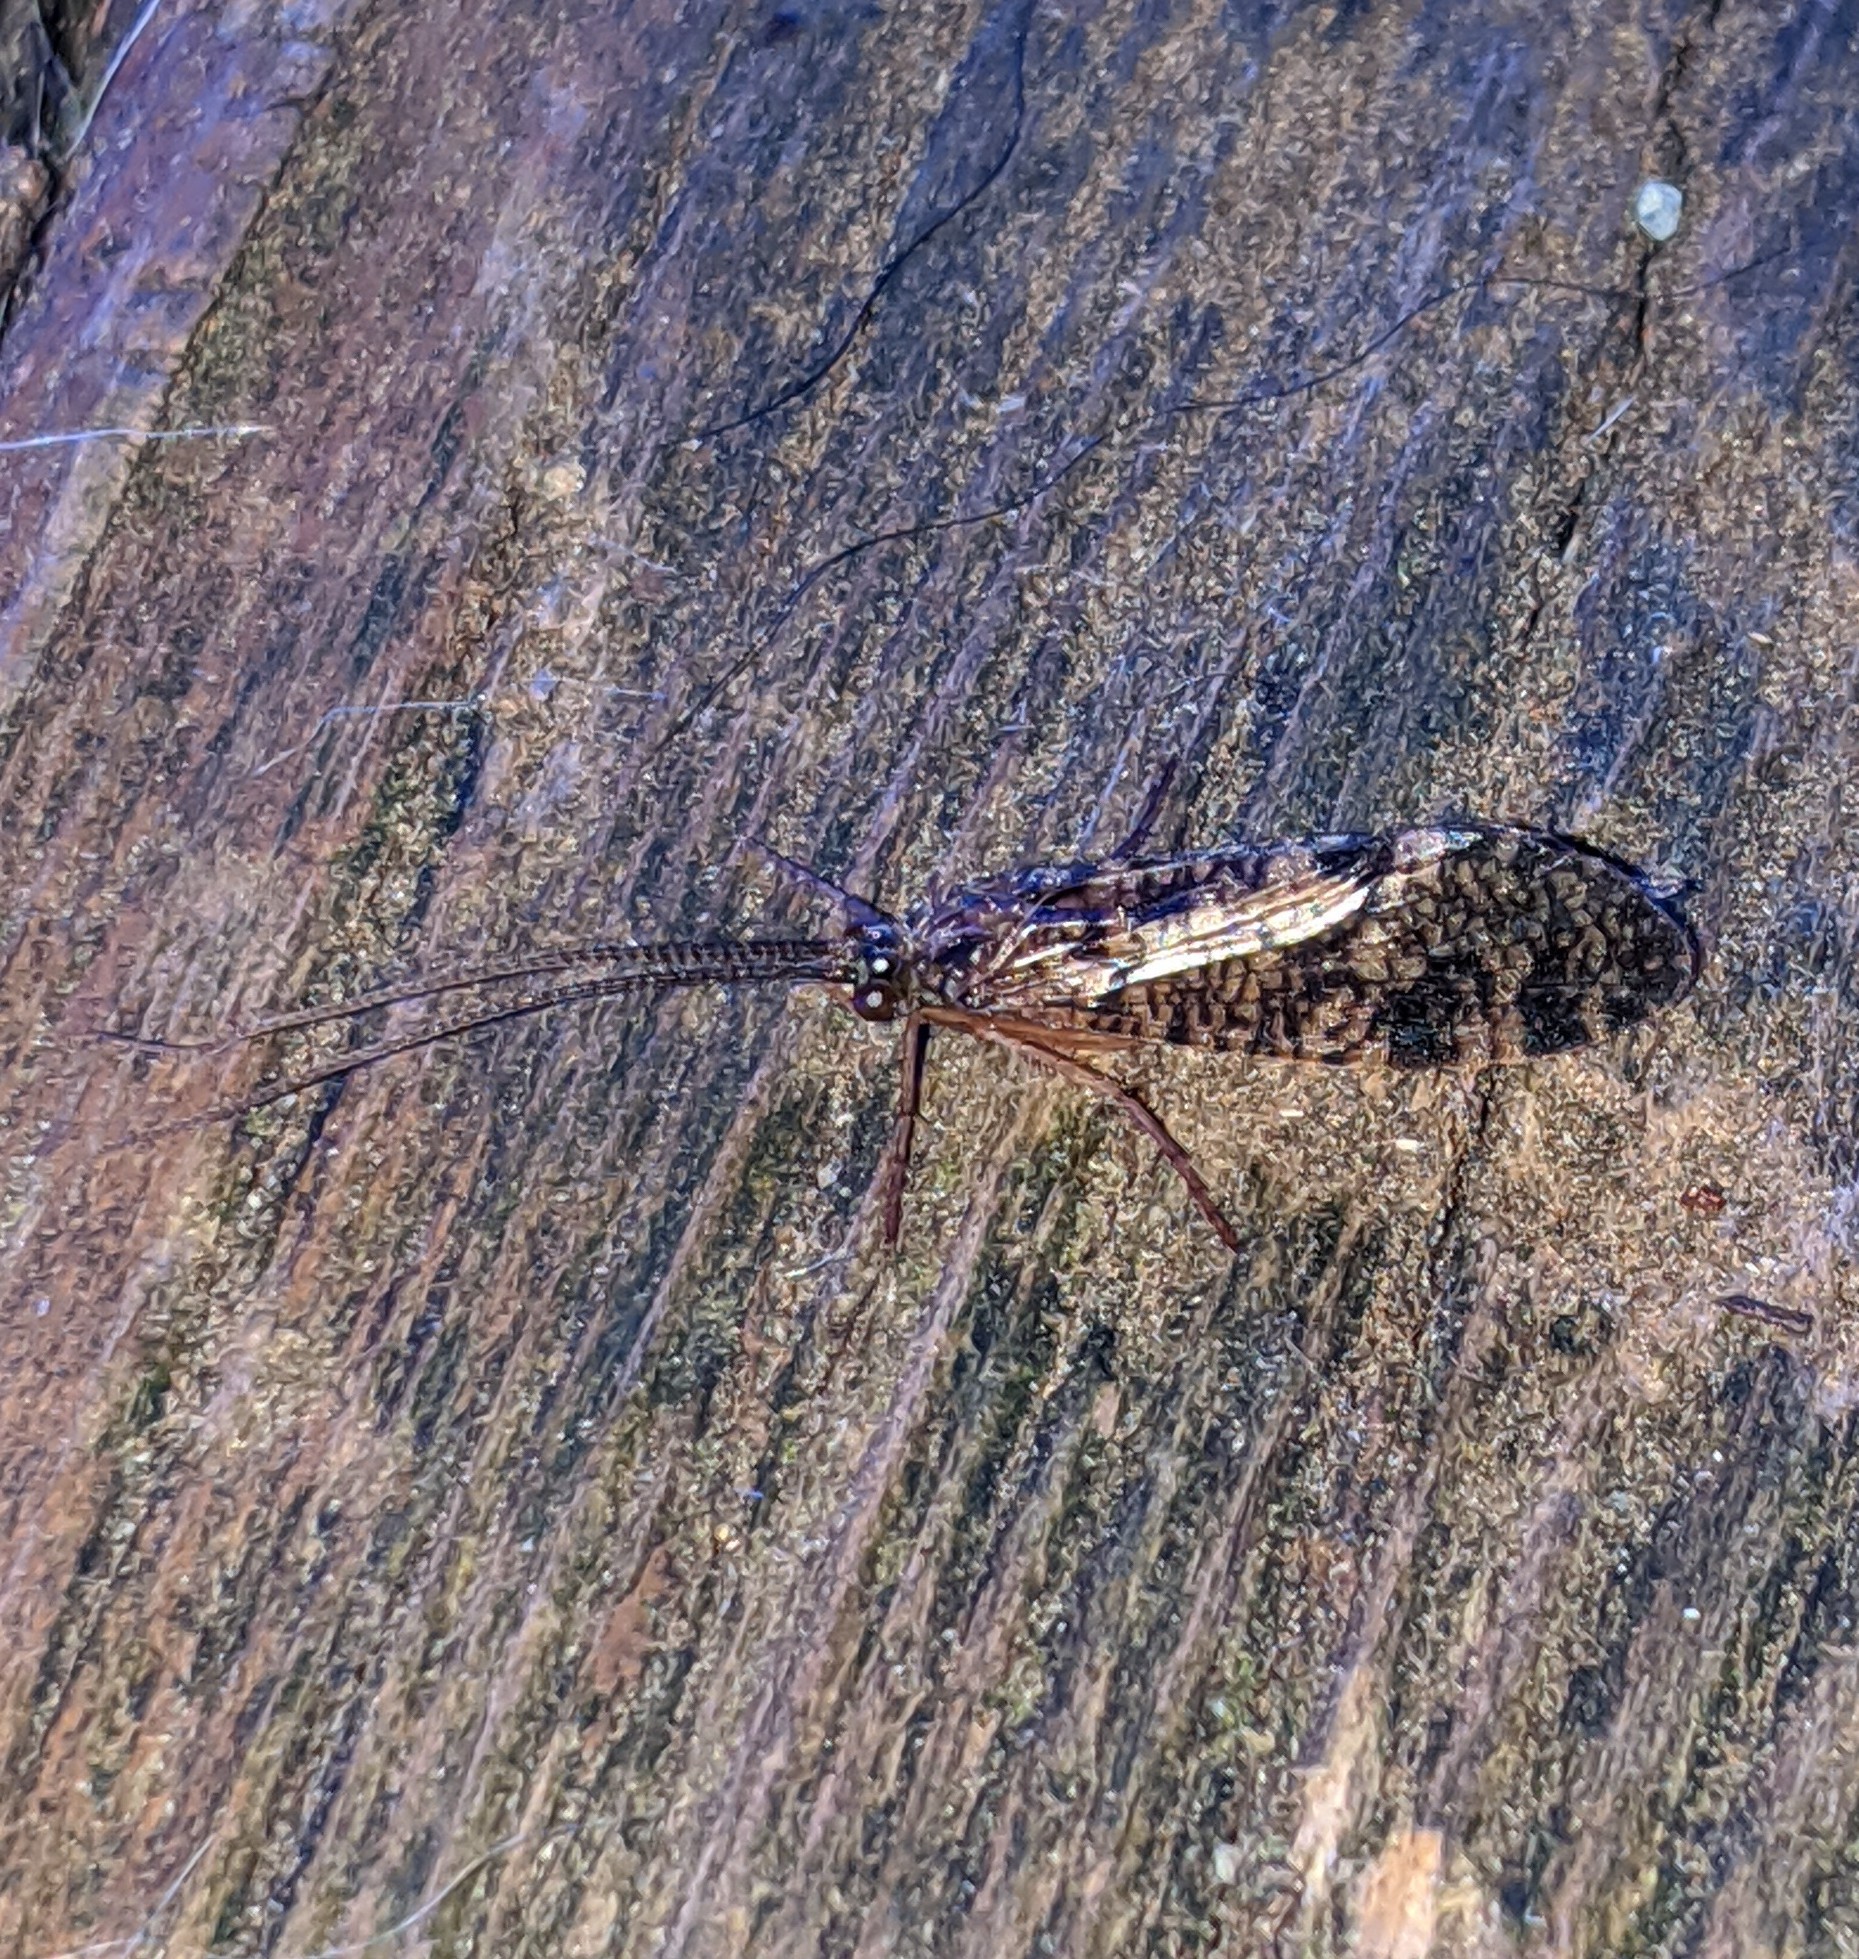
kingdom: Animalia
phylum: Arthropoda
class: Insecta
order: Trichoptera
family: Phryganeidae
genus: Banksiola
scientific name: Banksiola crotchi
